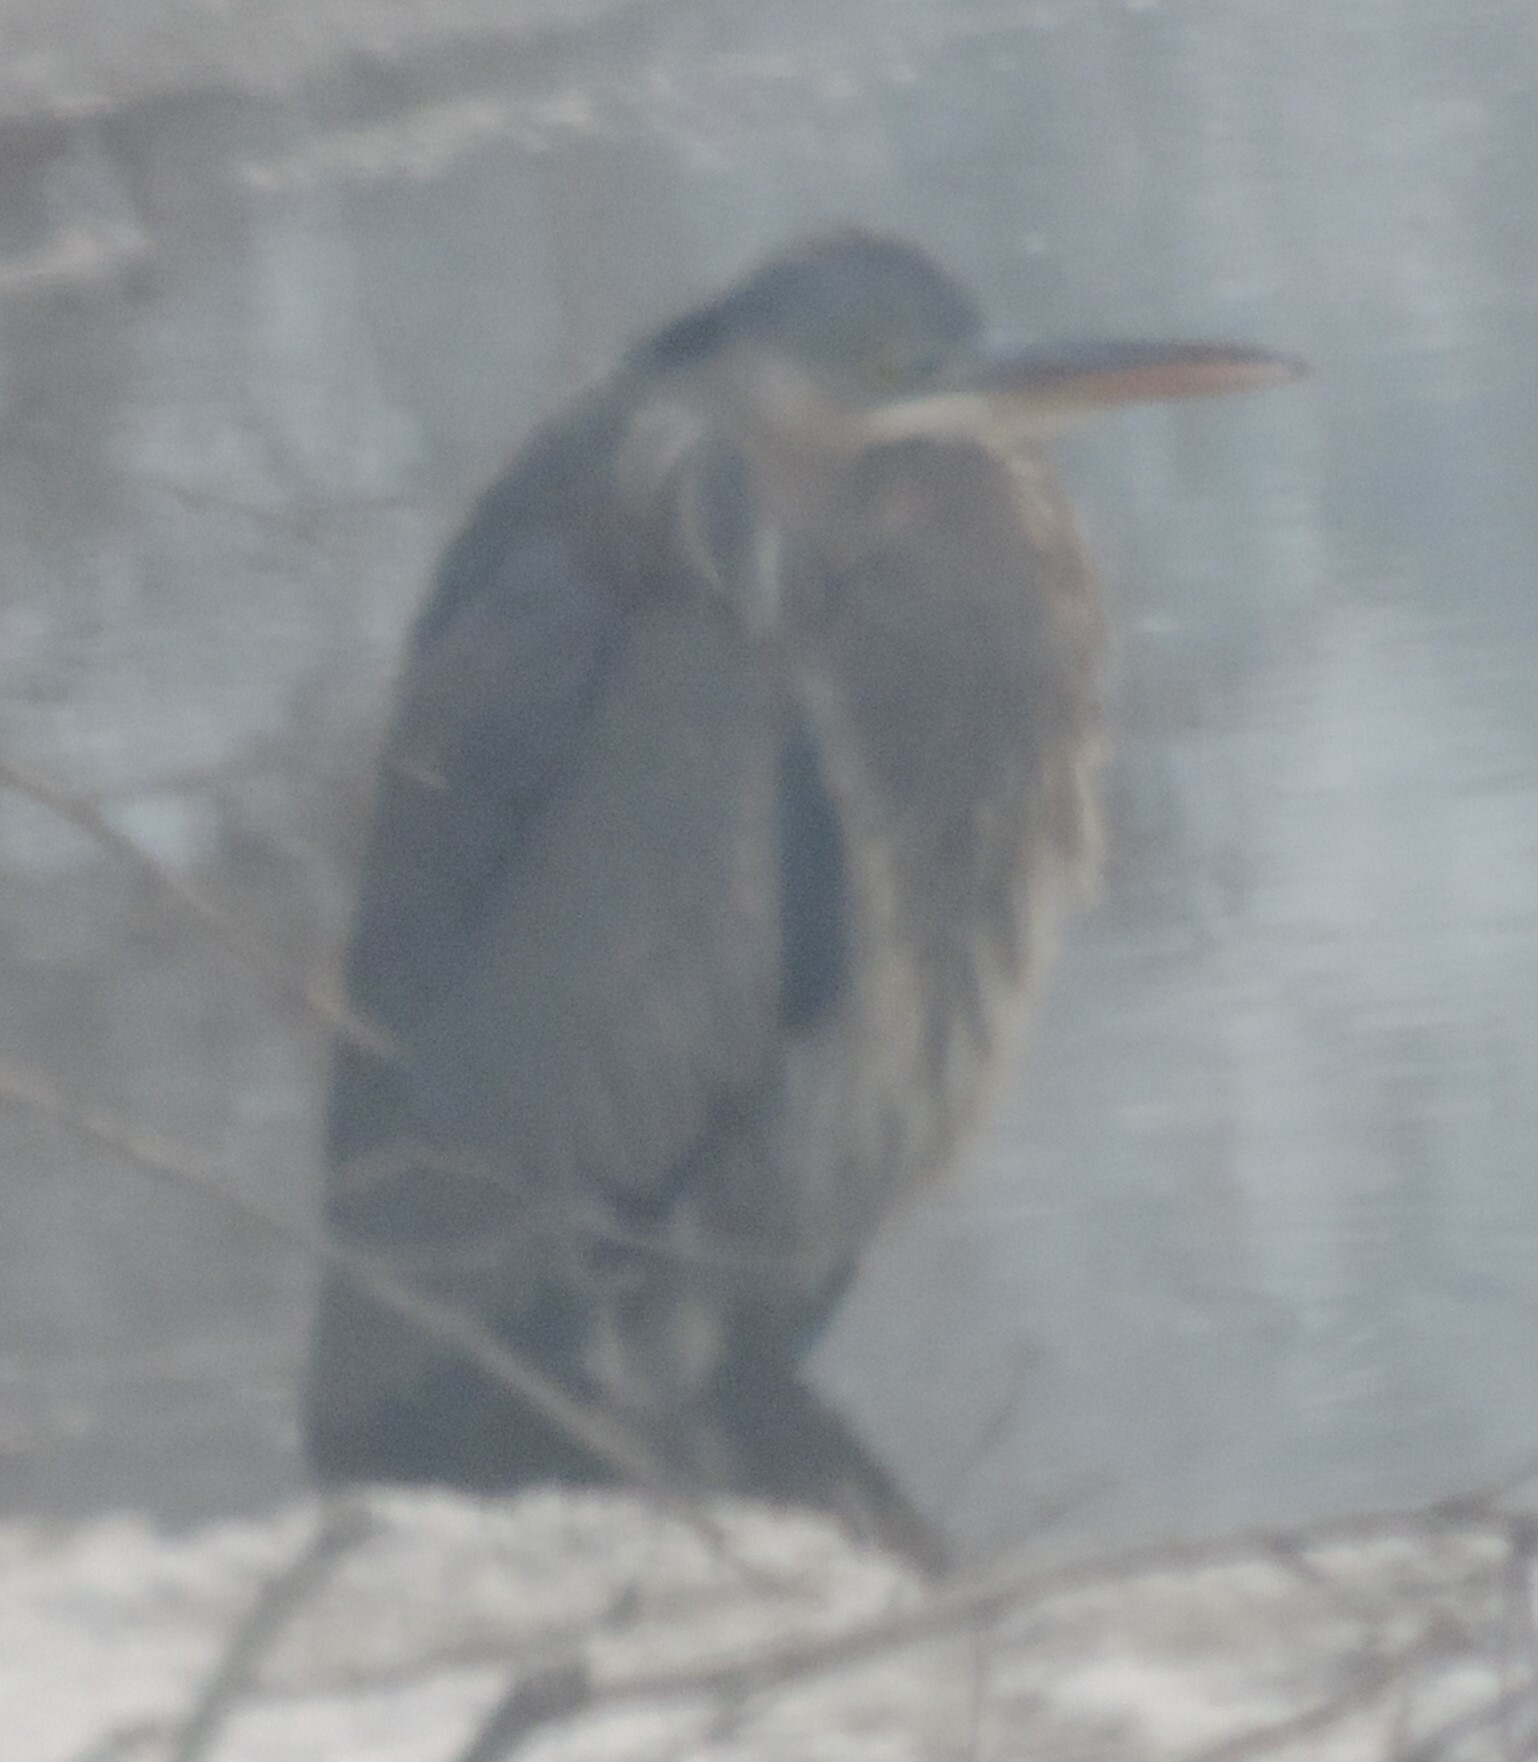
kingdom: Animalia
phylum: Chordata
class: Aves
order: Pelecaniformes
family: Ardeidae
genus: Ardea
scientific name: Ardea herodias
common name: Great blue heron
